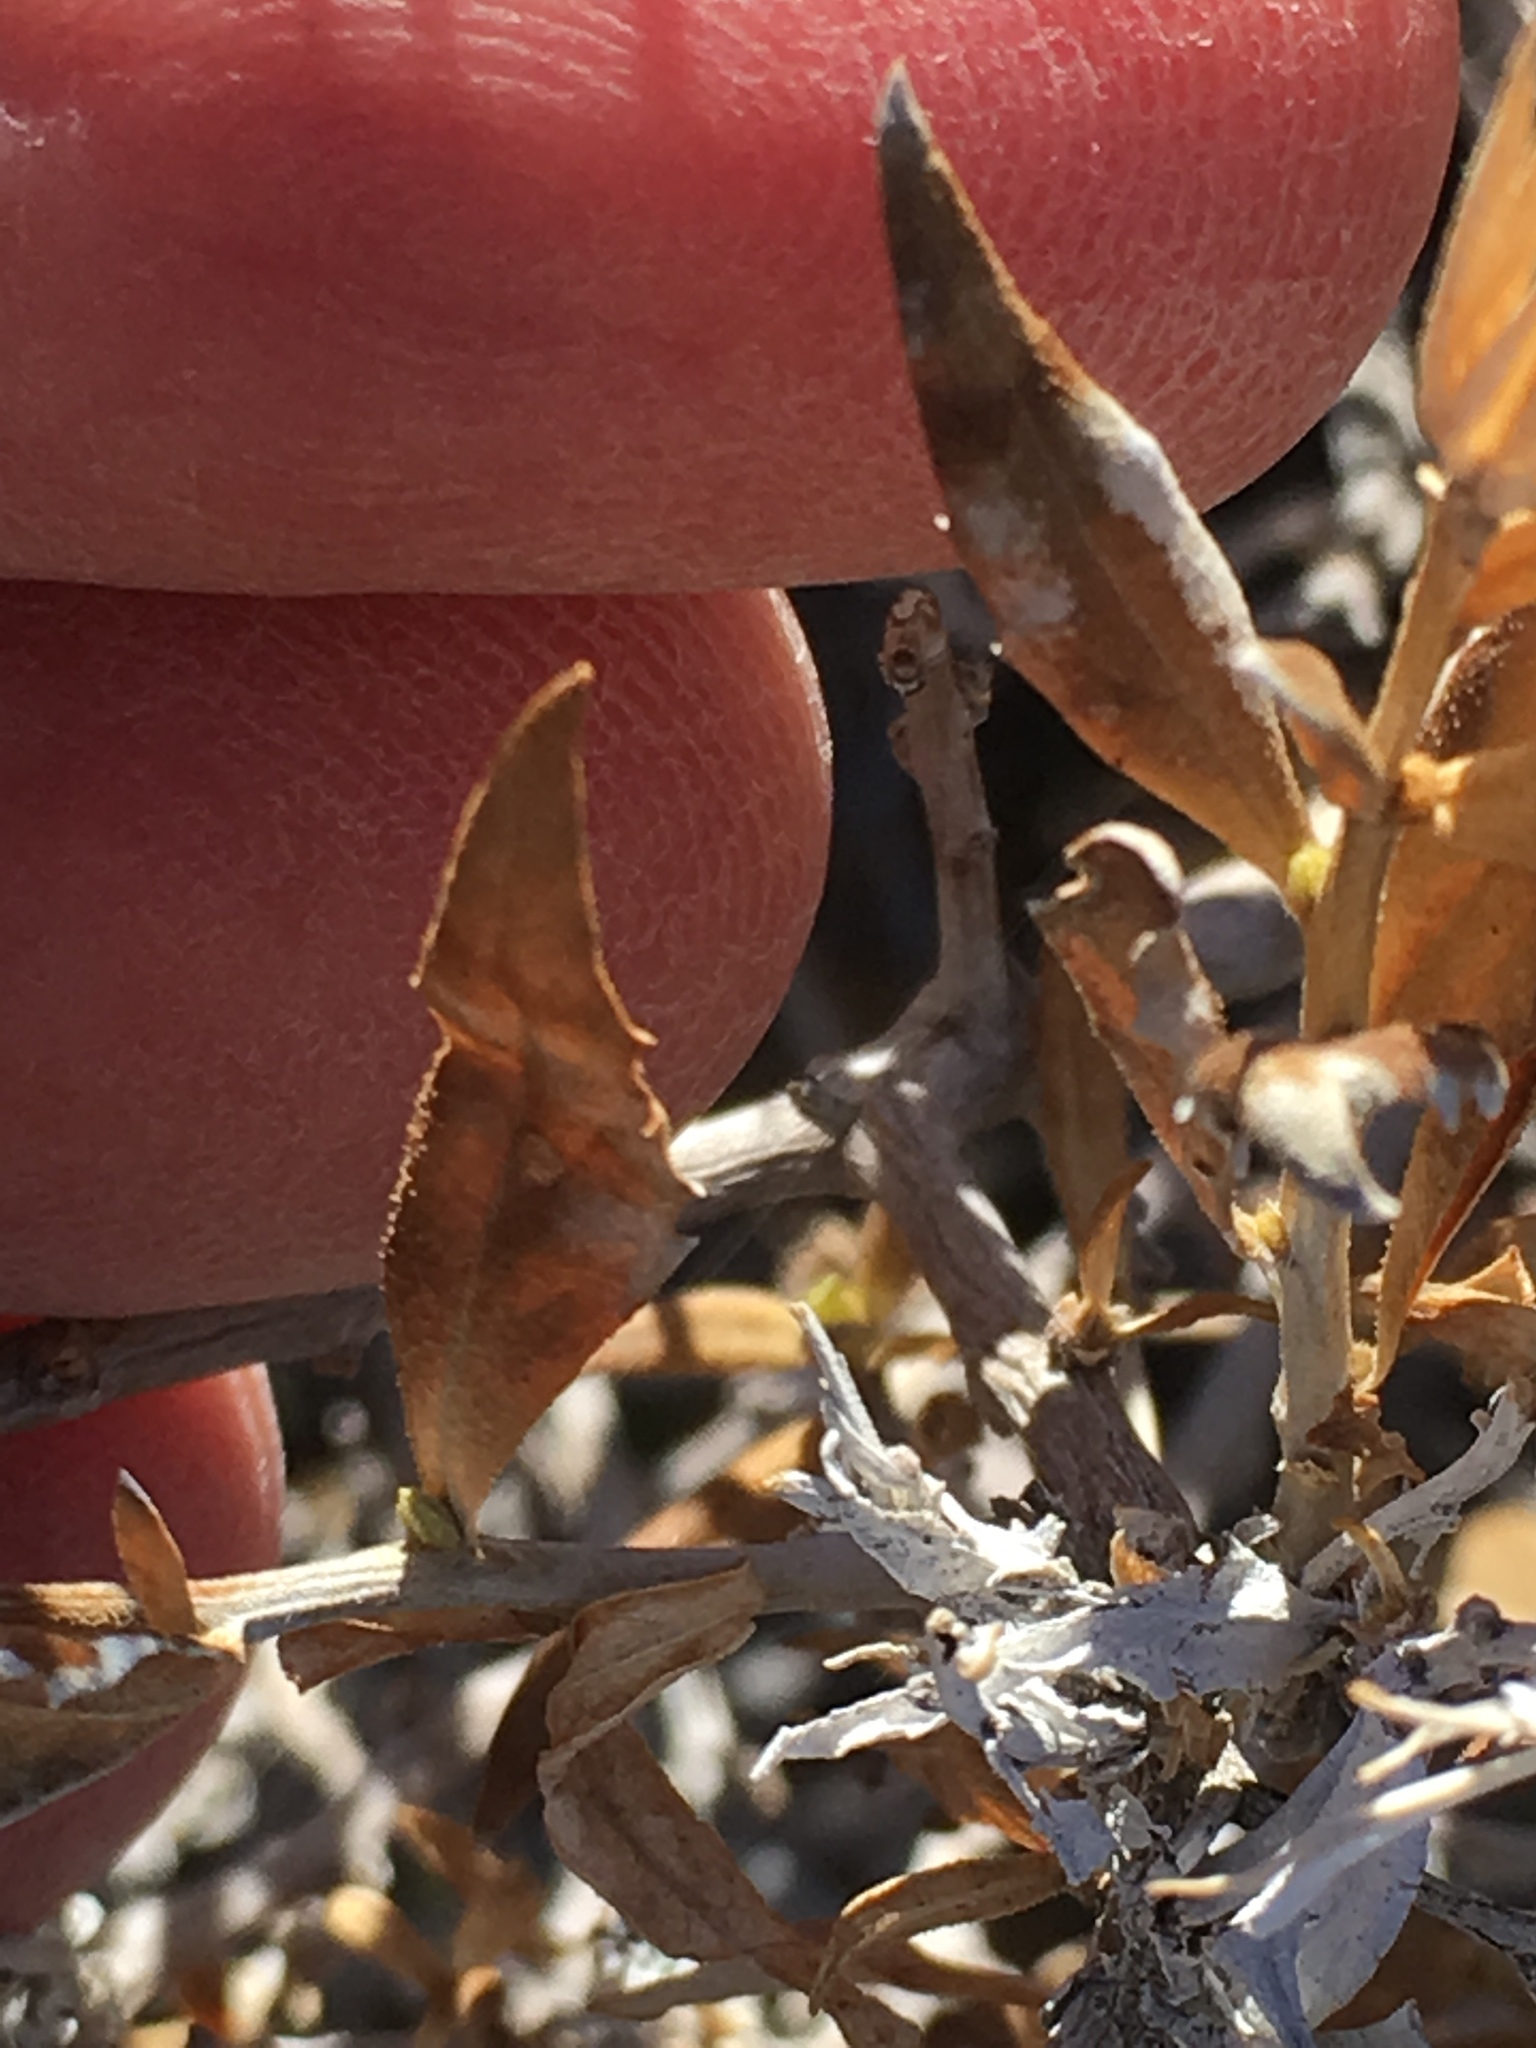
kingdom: Plantae
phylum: Tracheophyta
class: Magnoliopsida
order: Asterales
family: Asteraceae
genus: Trixis
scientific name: Trixis californica
